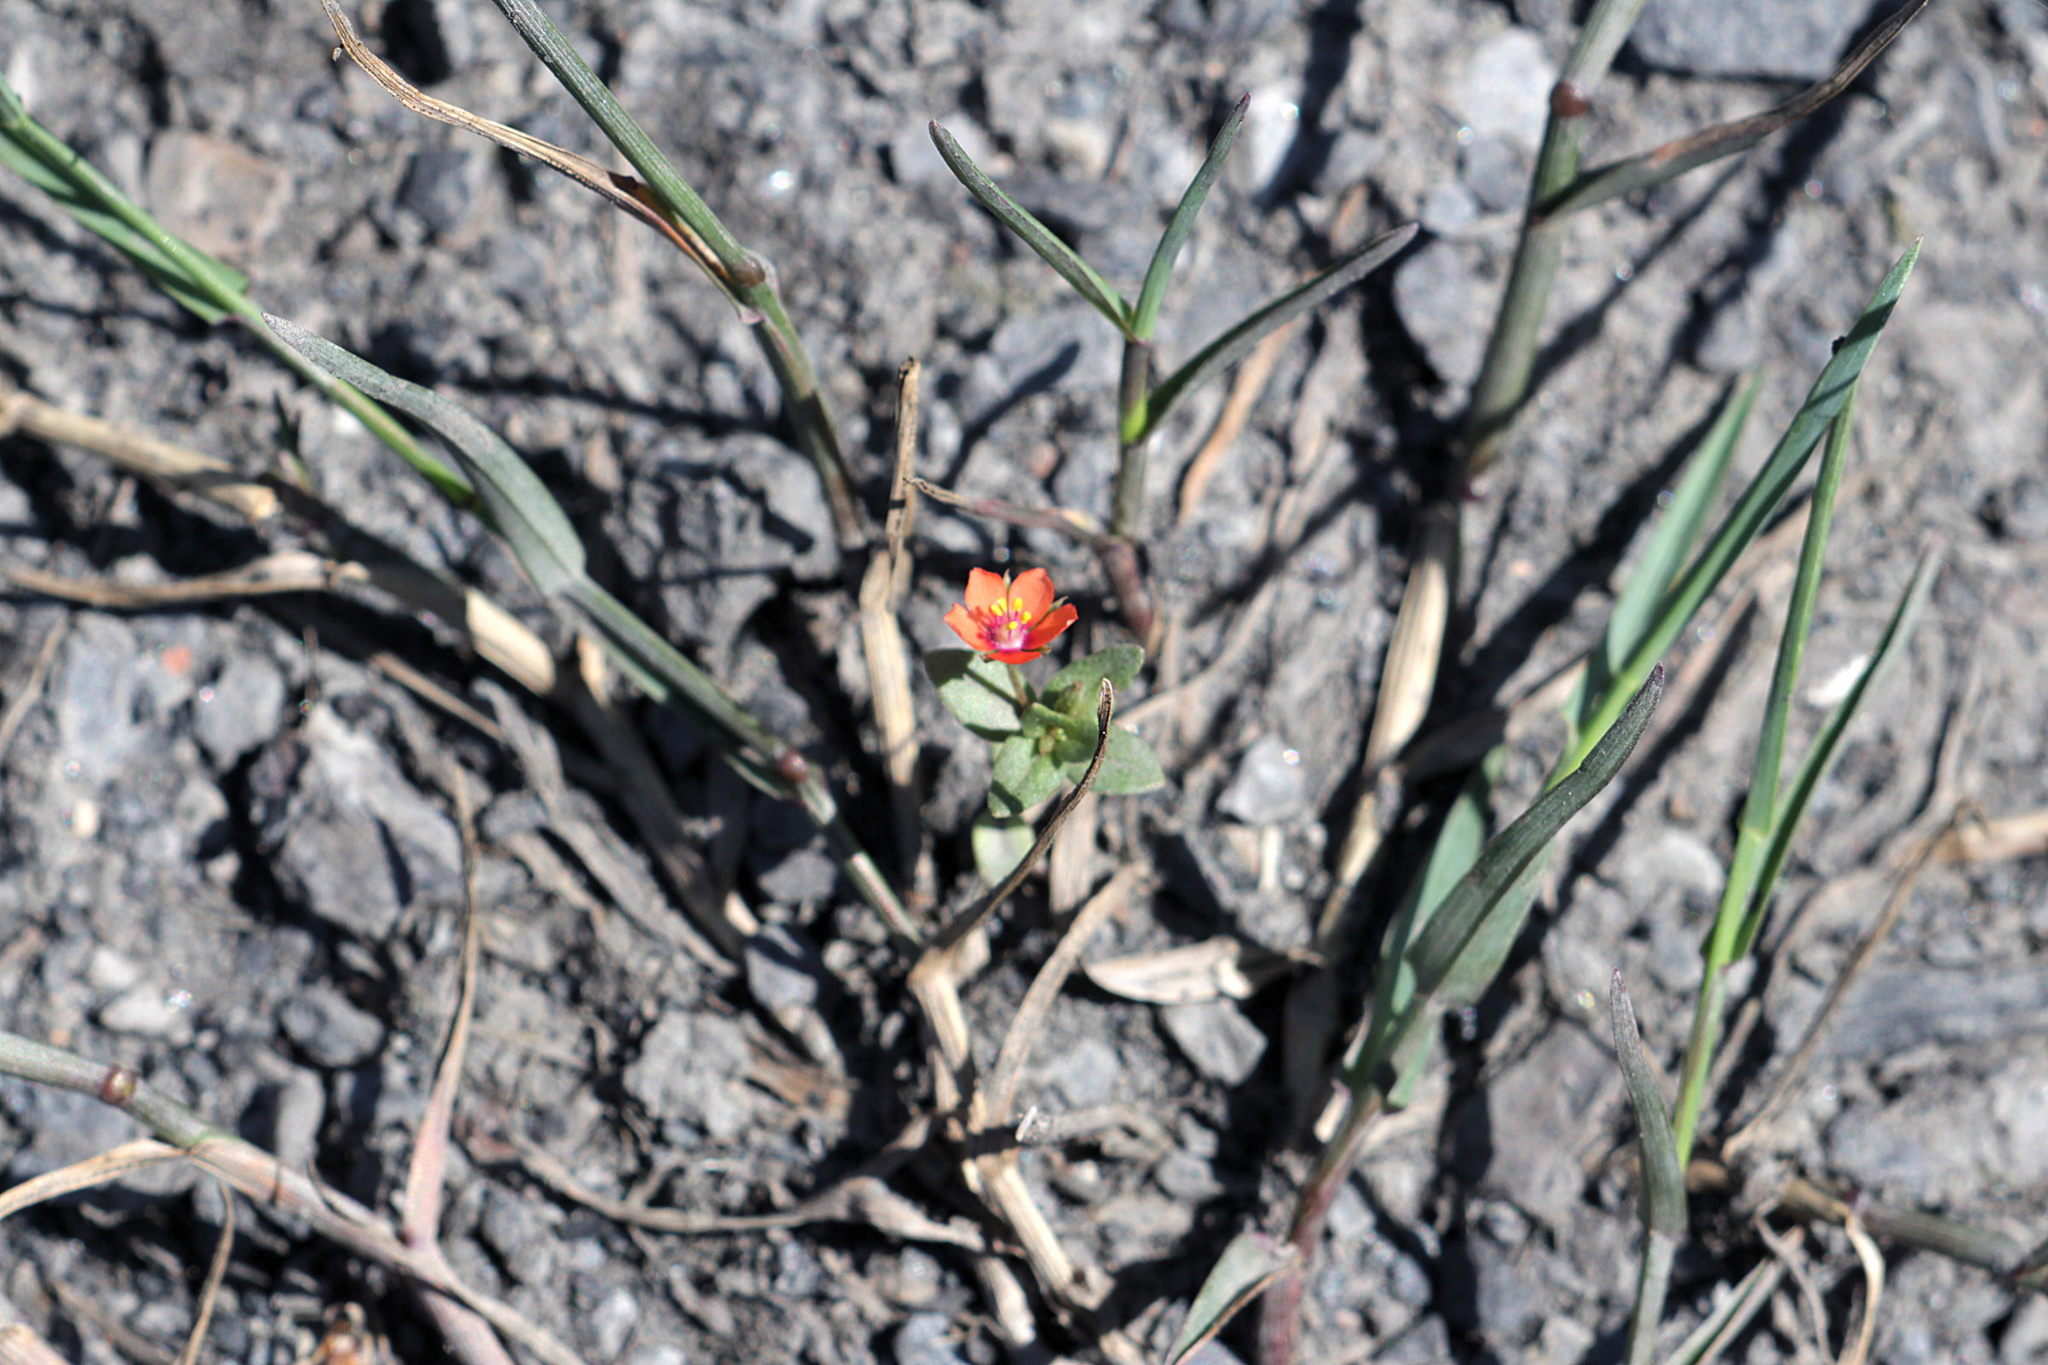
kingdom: Plantae
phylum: Tracheophyta
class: Magnoliopsida
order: Ericales
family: Primulaceae
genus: Lysimachia
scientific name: Lysimachia arvensis
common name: Scarlet pimpernel
